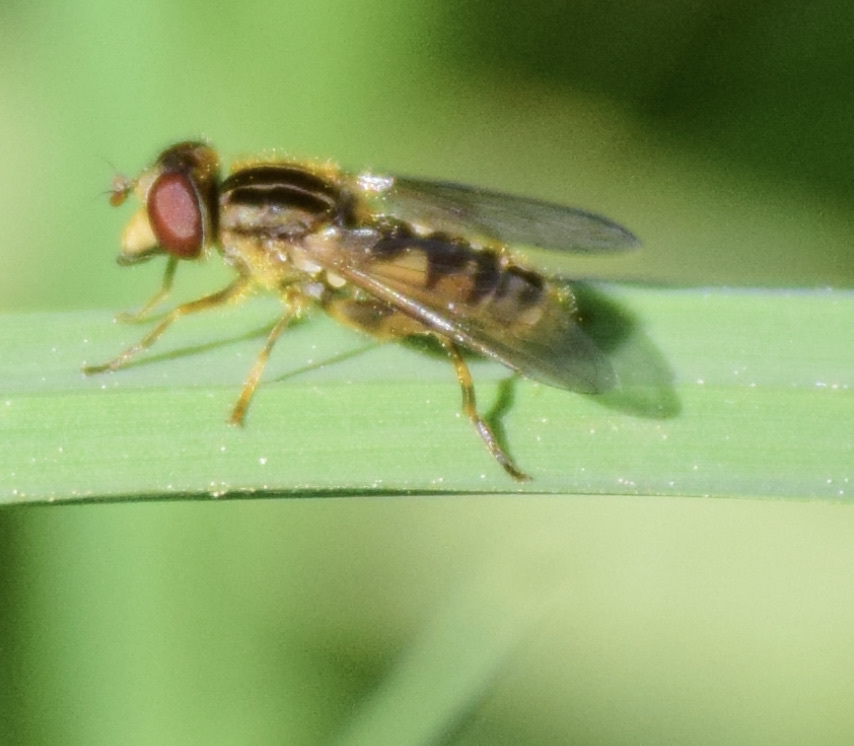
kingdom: Animalia
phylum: Arthropoda
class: Insecta
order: Diptera
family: Syrphidae
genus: Eurimyia
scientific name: Eurimyia stipatus
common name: Long-nosed swamp fly
